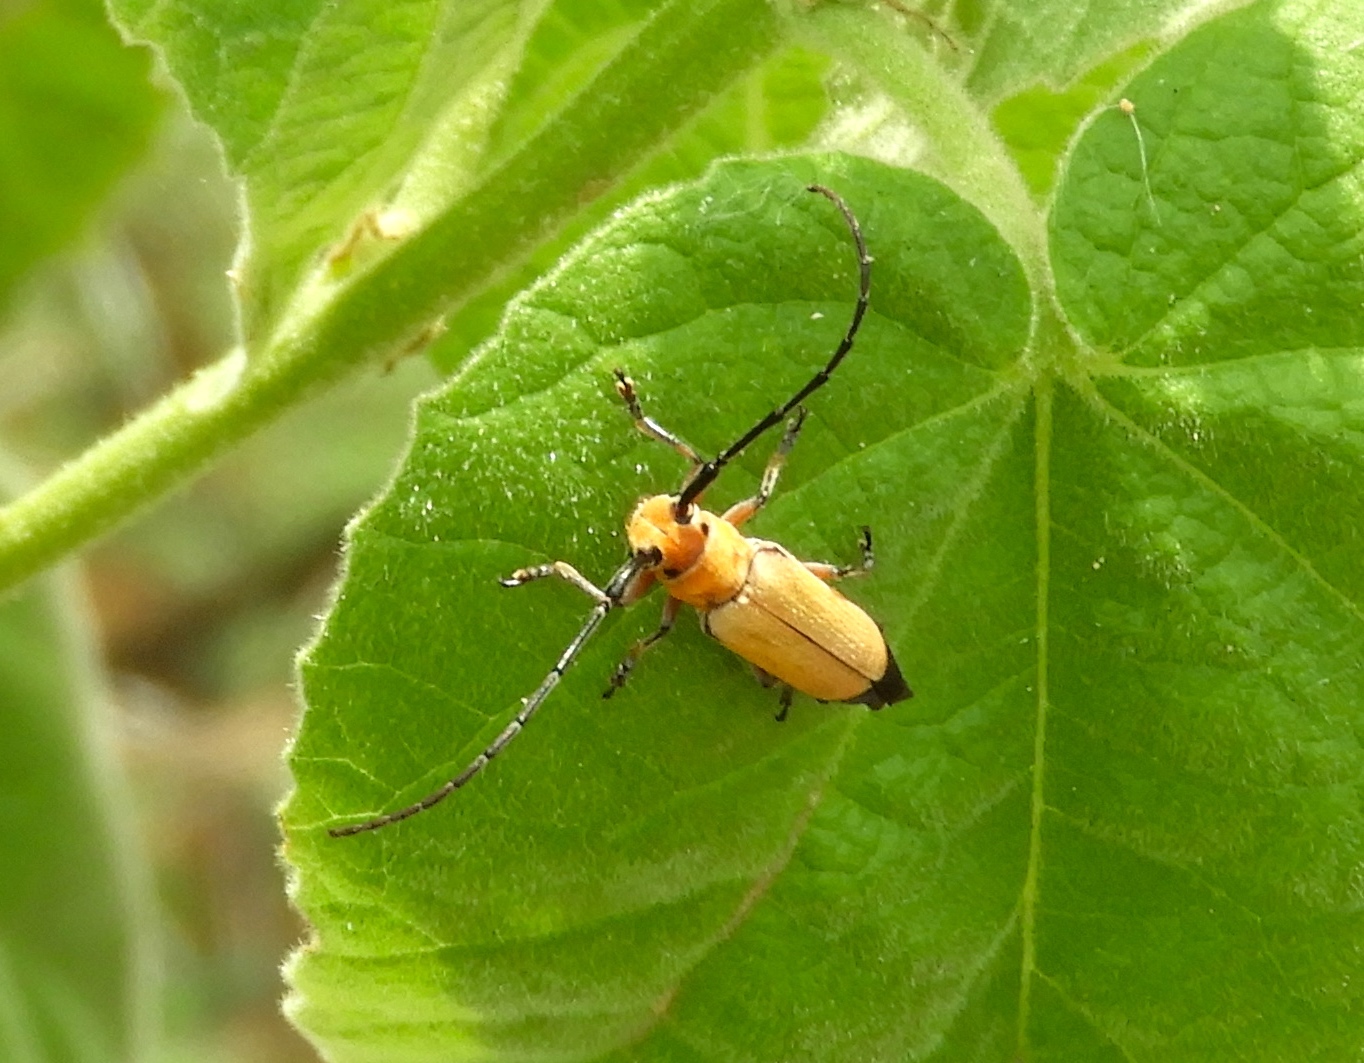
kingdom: Animalia
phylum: Arthropoda
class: Insecta
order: Coleoptera
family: Cerambycidae
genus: Essostrutha
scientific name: Essostrutha laeta
